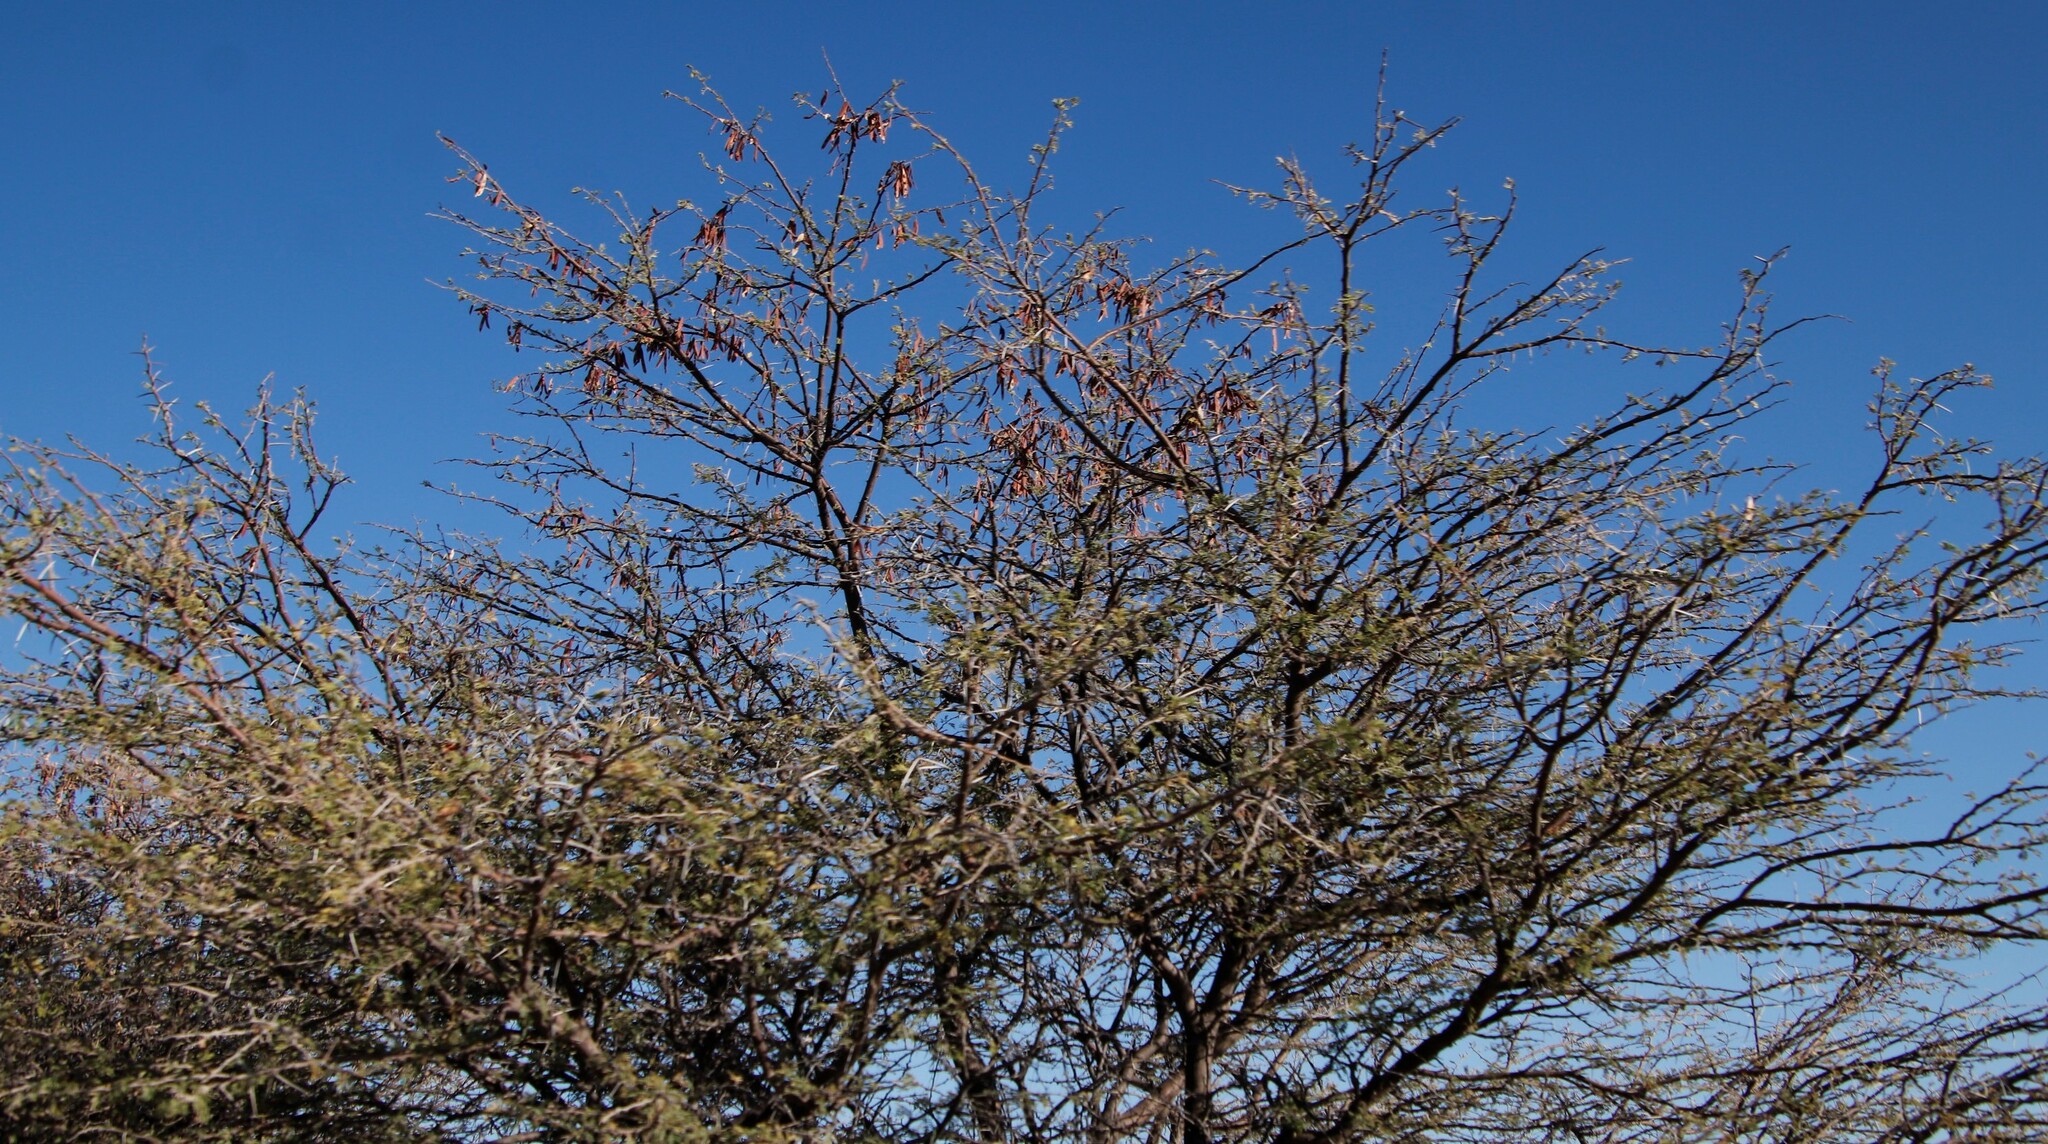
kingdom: Plantae
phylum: Tracheophyta
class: Magnoliopsida
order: Fabales
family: Fabaceae
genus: Vachellia
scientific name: Vachellia luederitzii
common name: Bastard umbrella thorn
